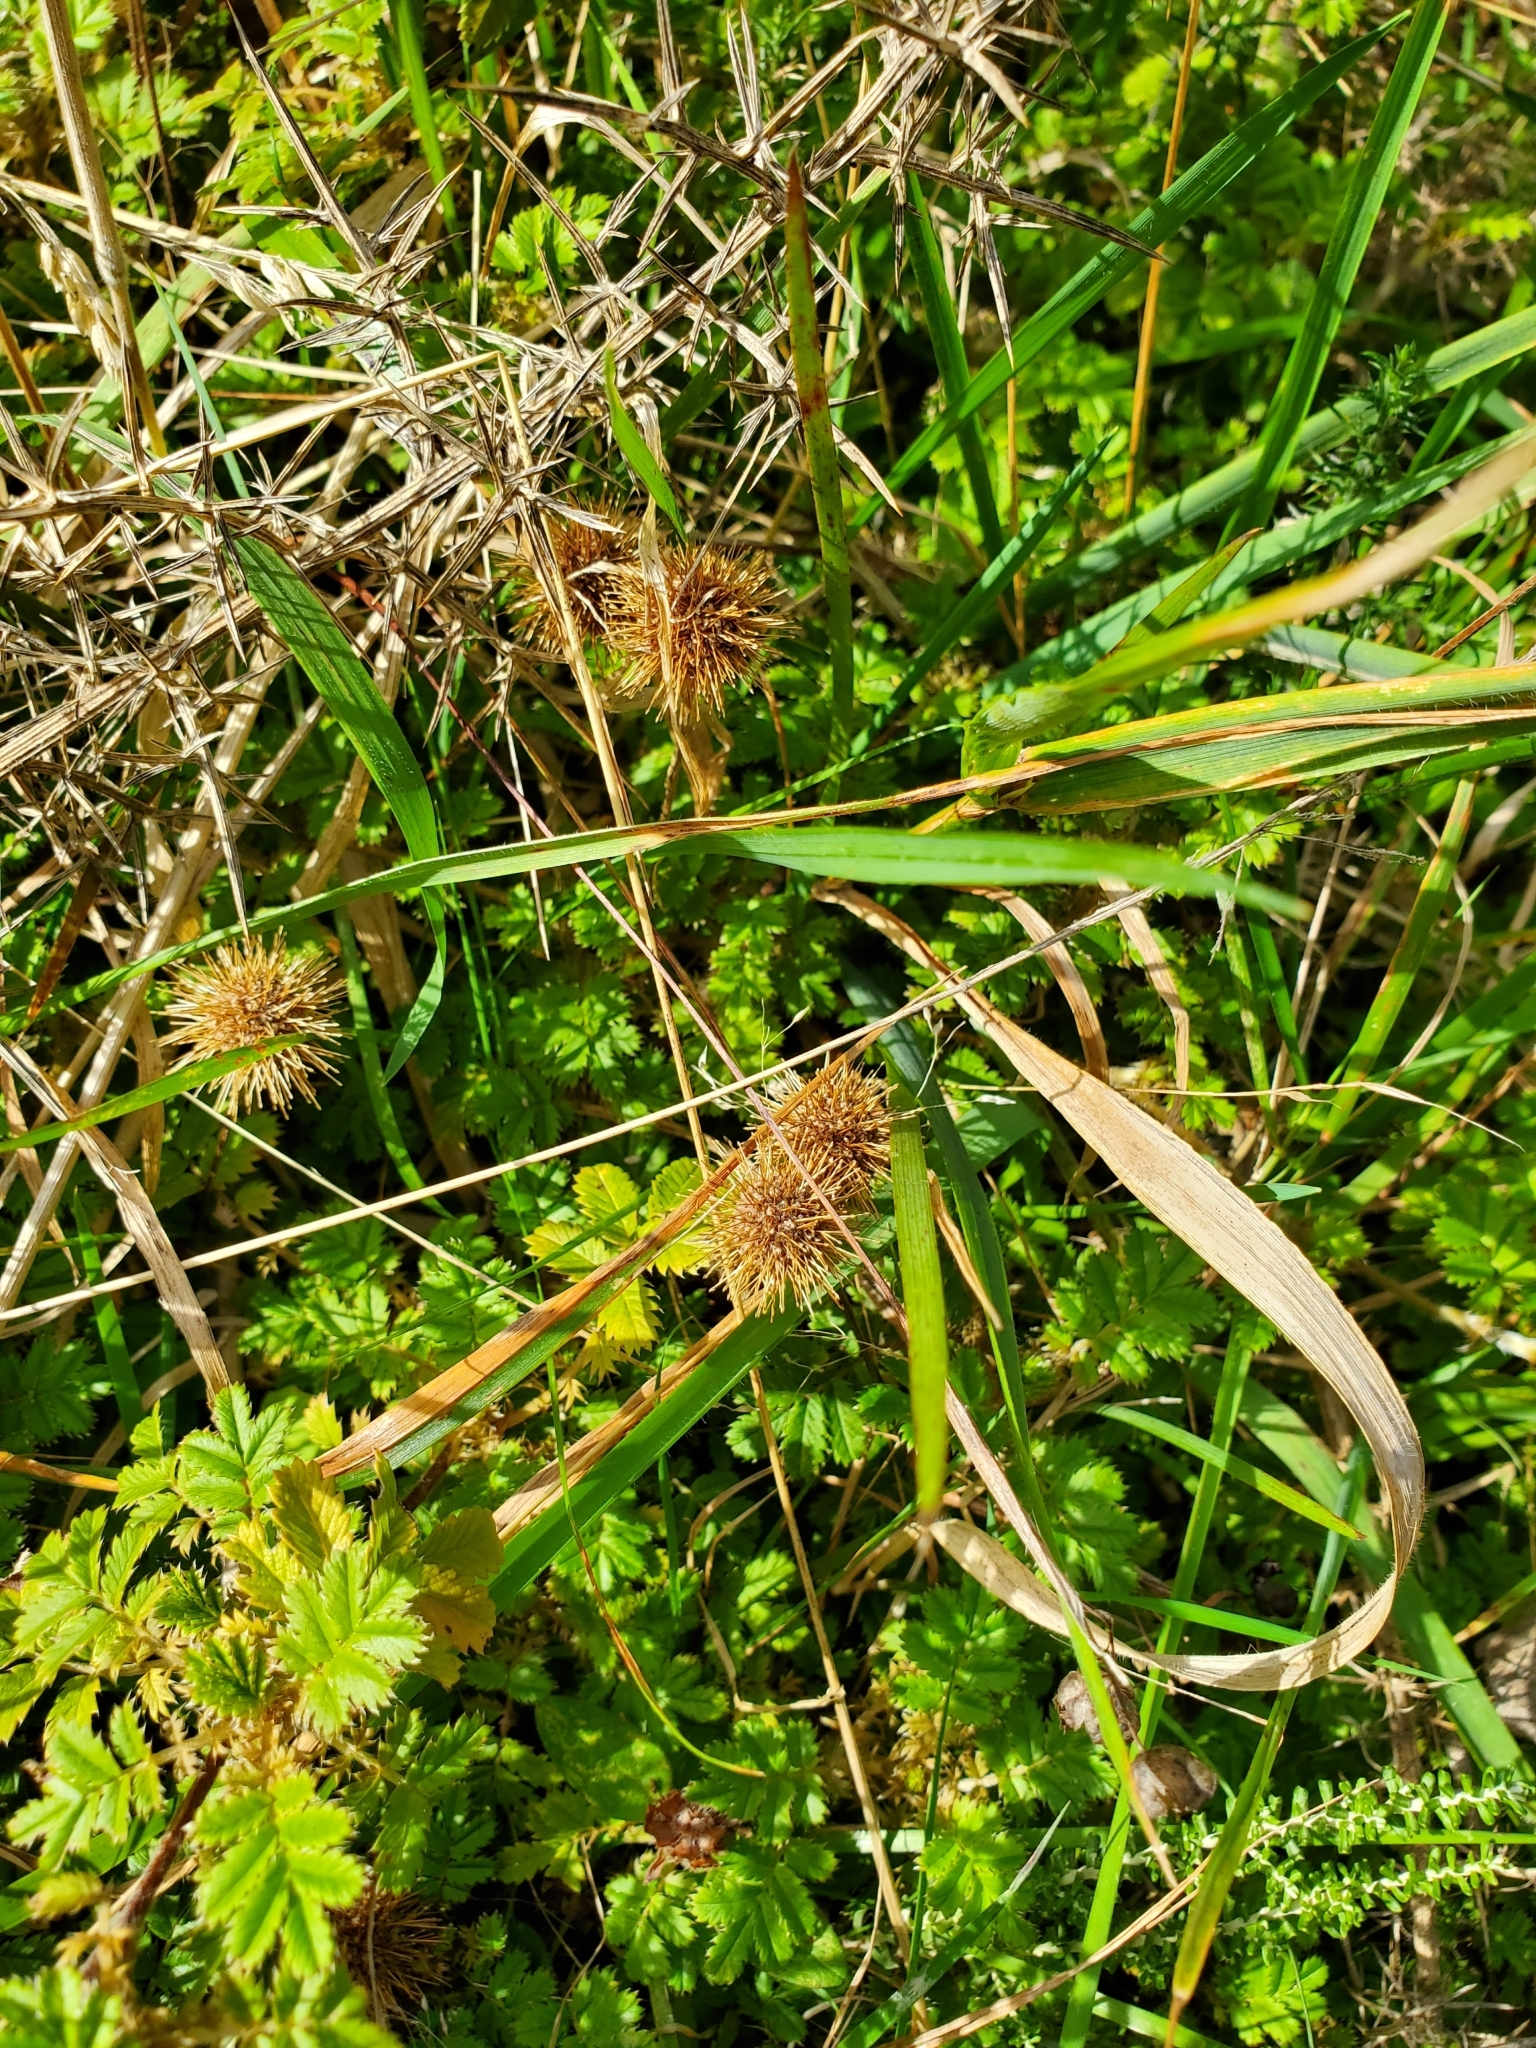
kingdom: Plantae
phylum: Tracheophyta
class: Magnoliopsida
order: Rosales
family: Rosaceae
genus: Acaena
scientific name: Acaena anserinifolia
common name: Bronze pirri-pirri-bur
